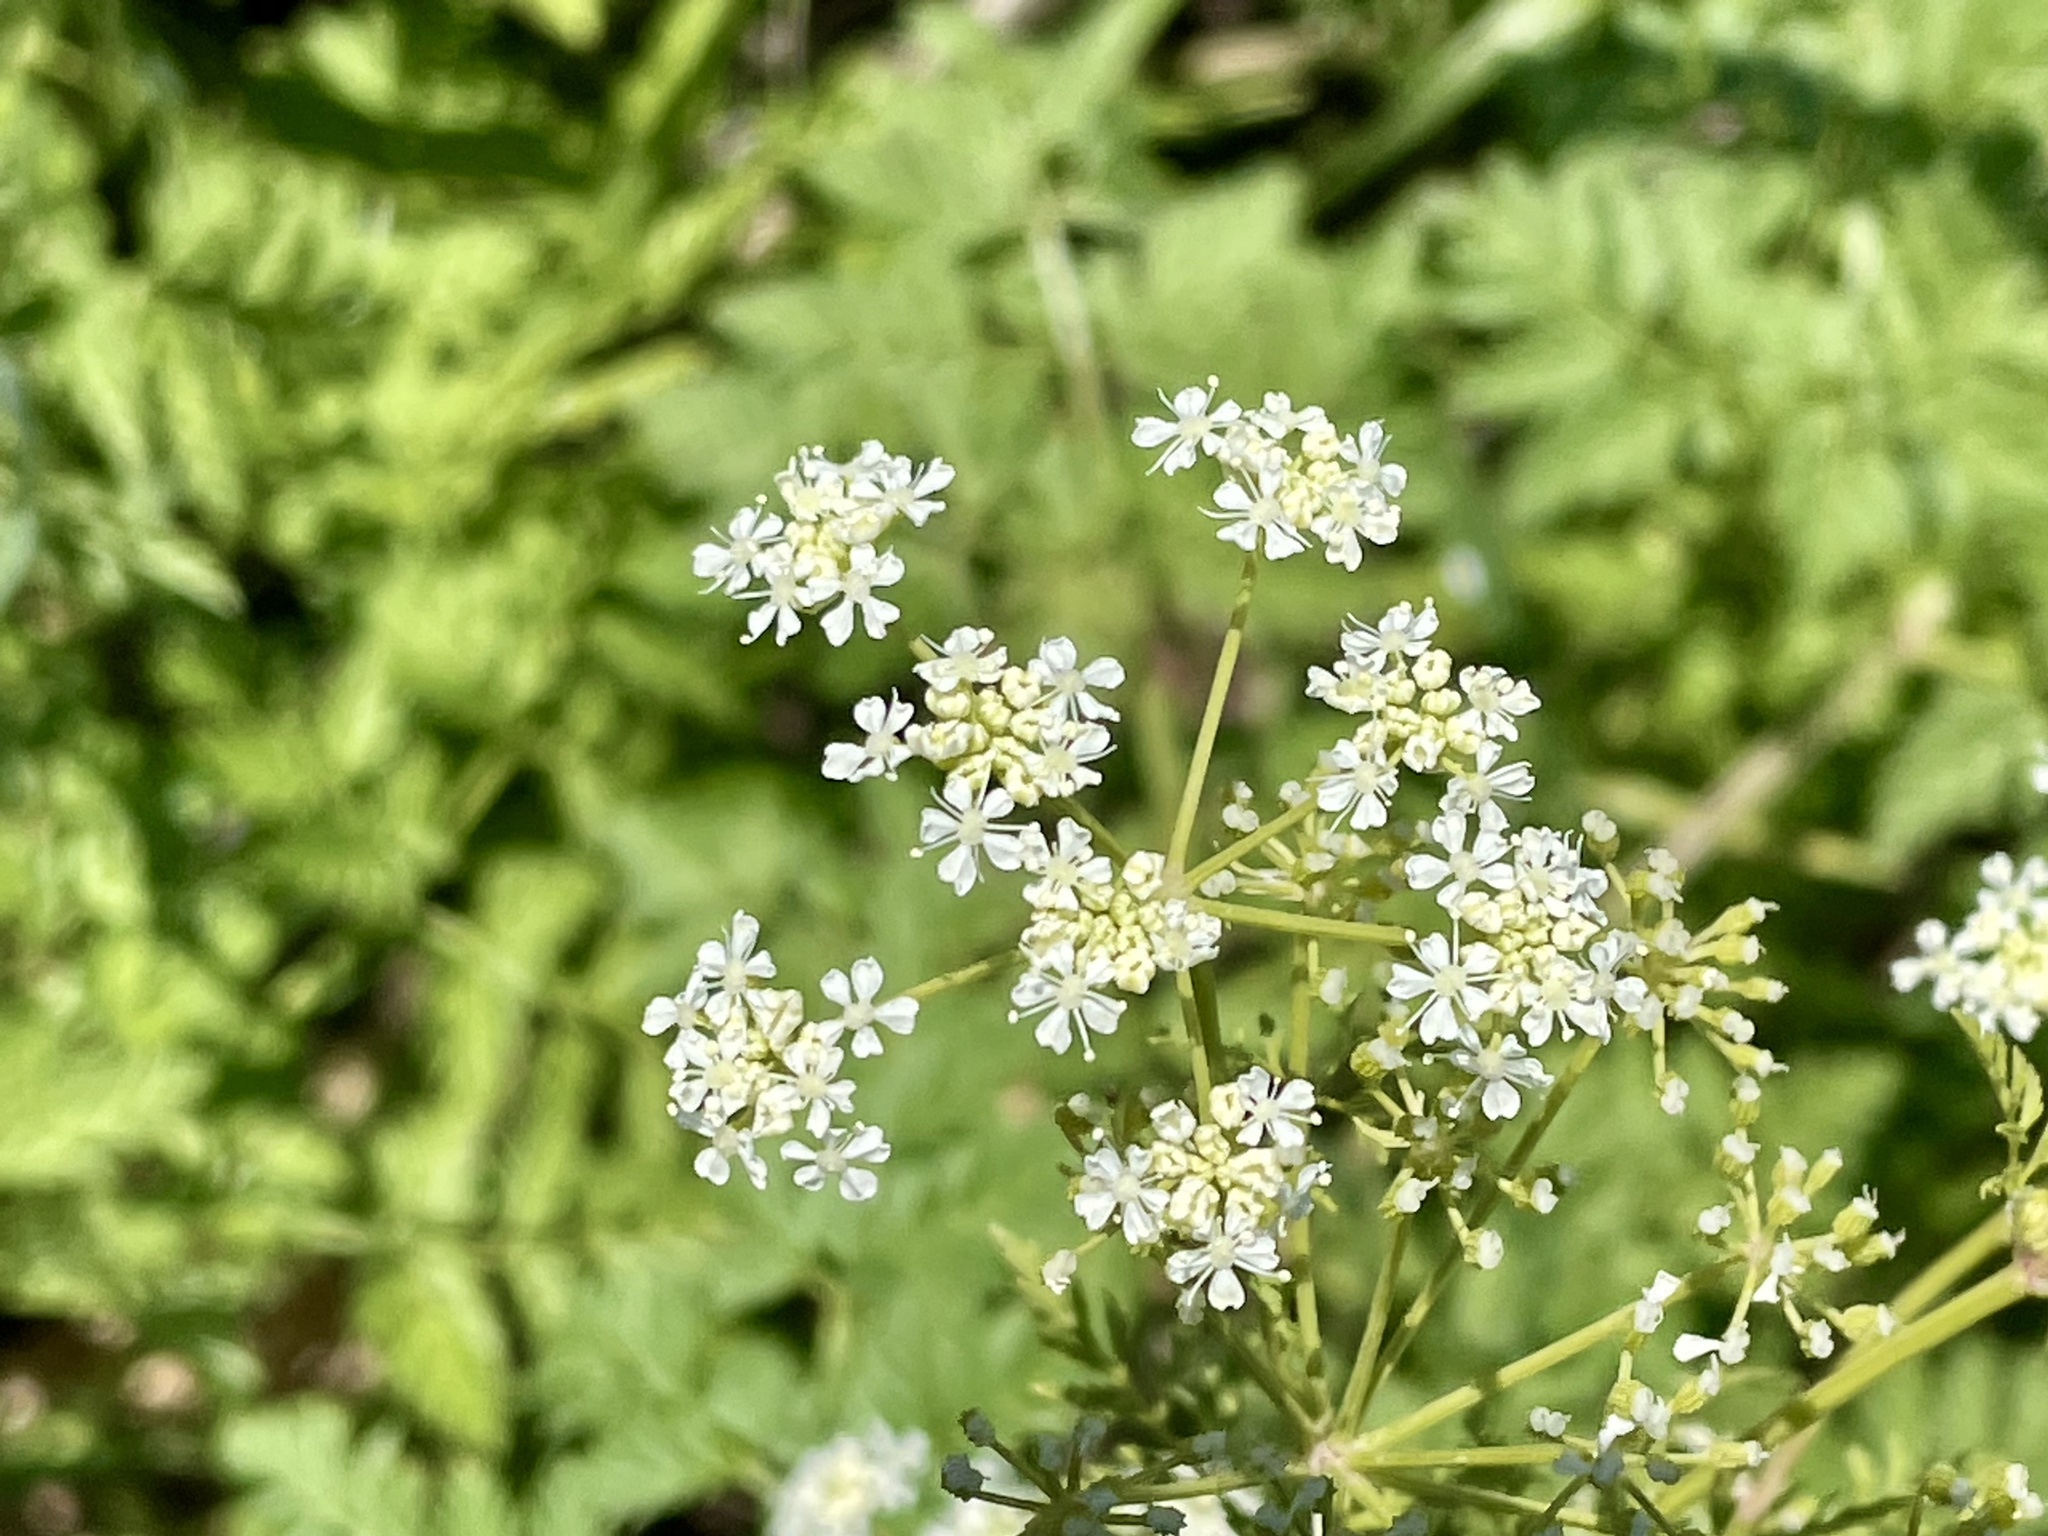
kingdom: Plantae
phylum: Tracheophyta
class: Magnoliopsida
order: Apiales
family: Apiaceae
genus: Conium
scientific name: Conium maculatum
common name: Hemlock
